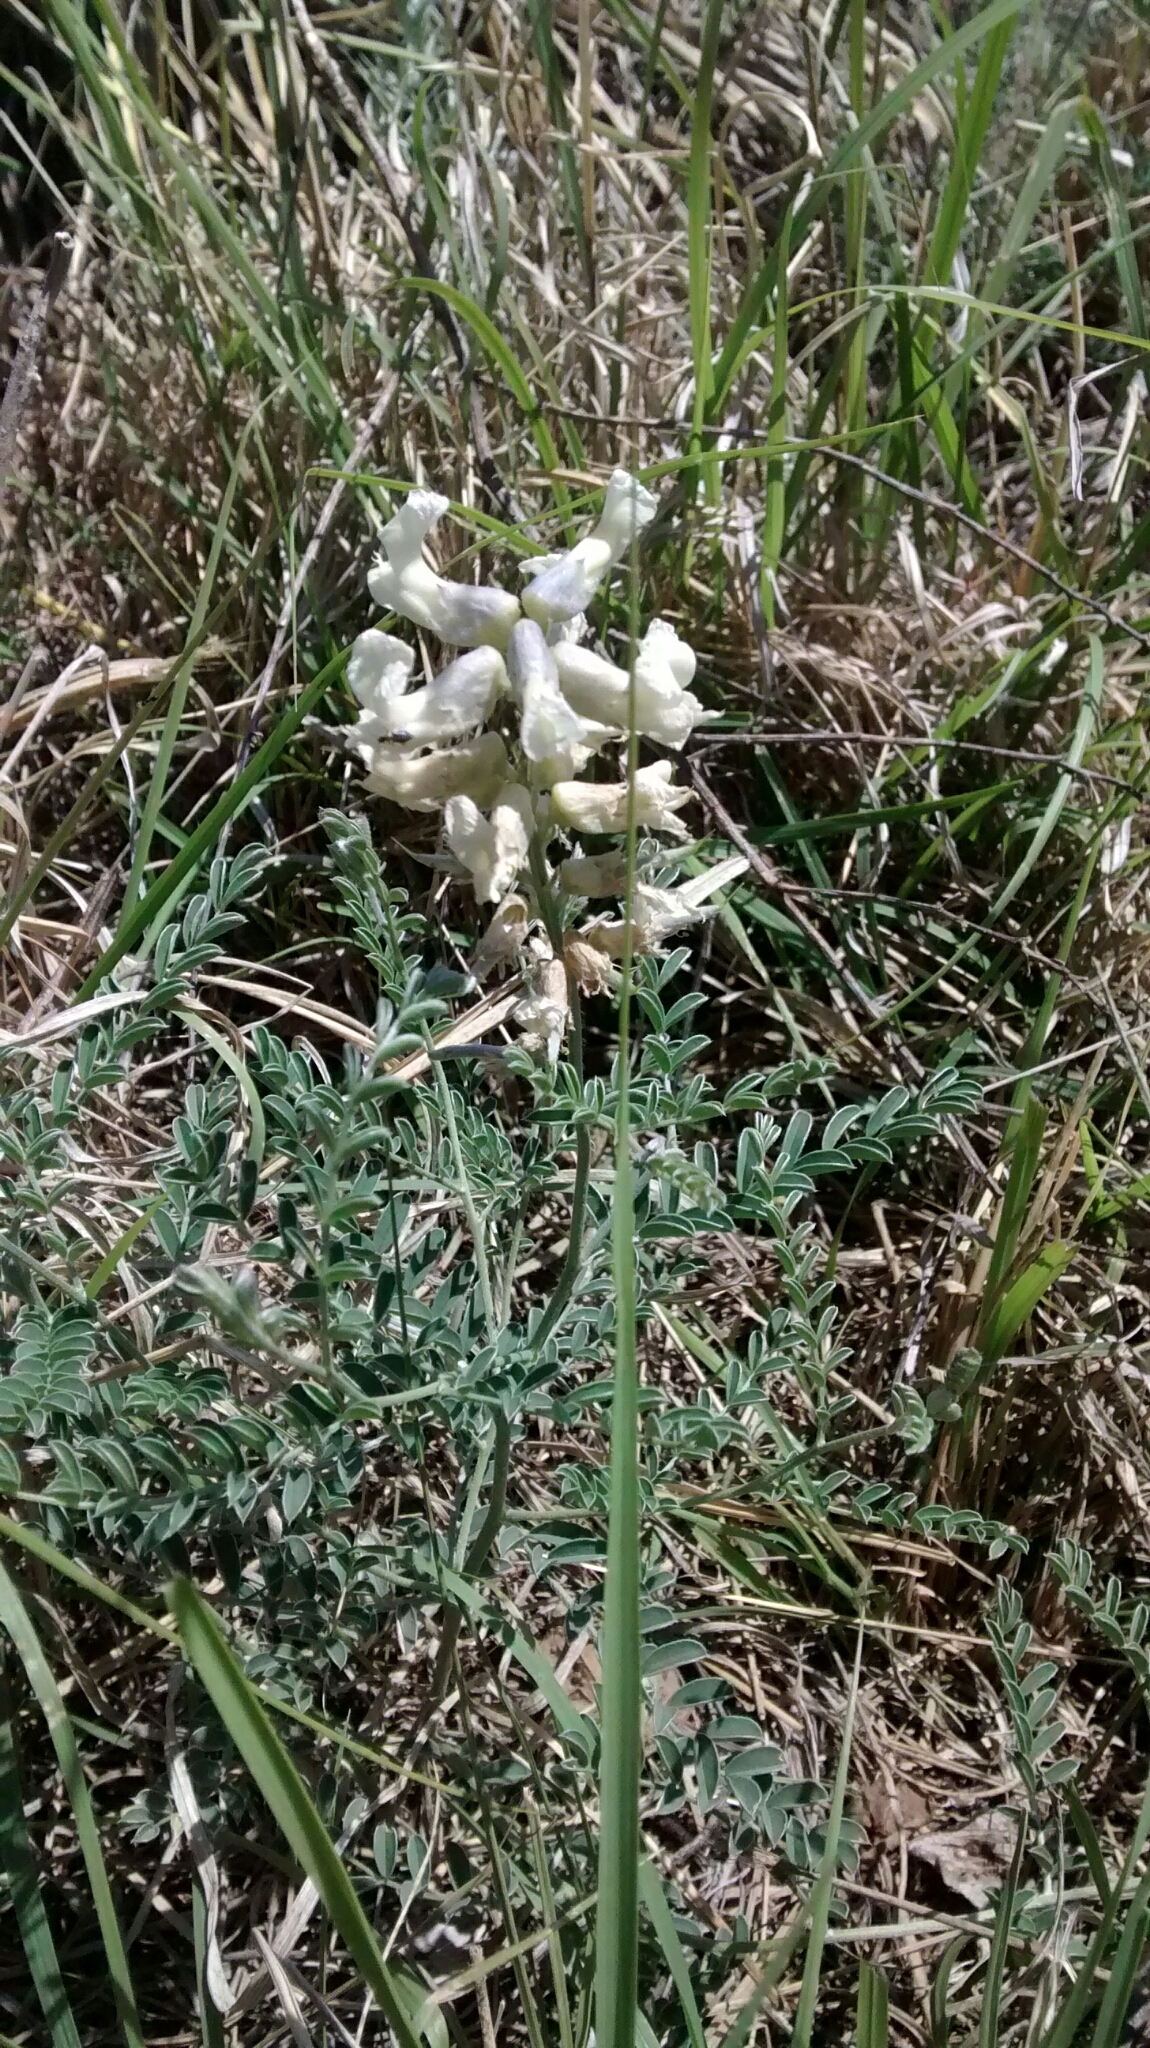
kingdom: Plantae
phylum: Tracheophyta
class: Magnoliopsida
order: Fabales
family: Fabaceae
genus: Sophora
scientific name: Sophora nuttalliana
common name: Silky sophora
